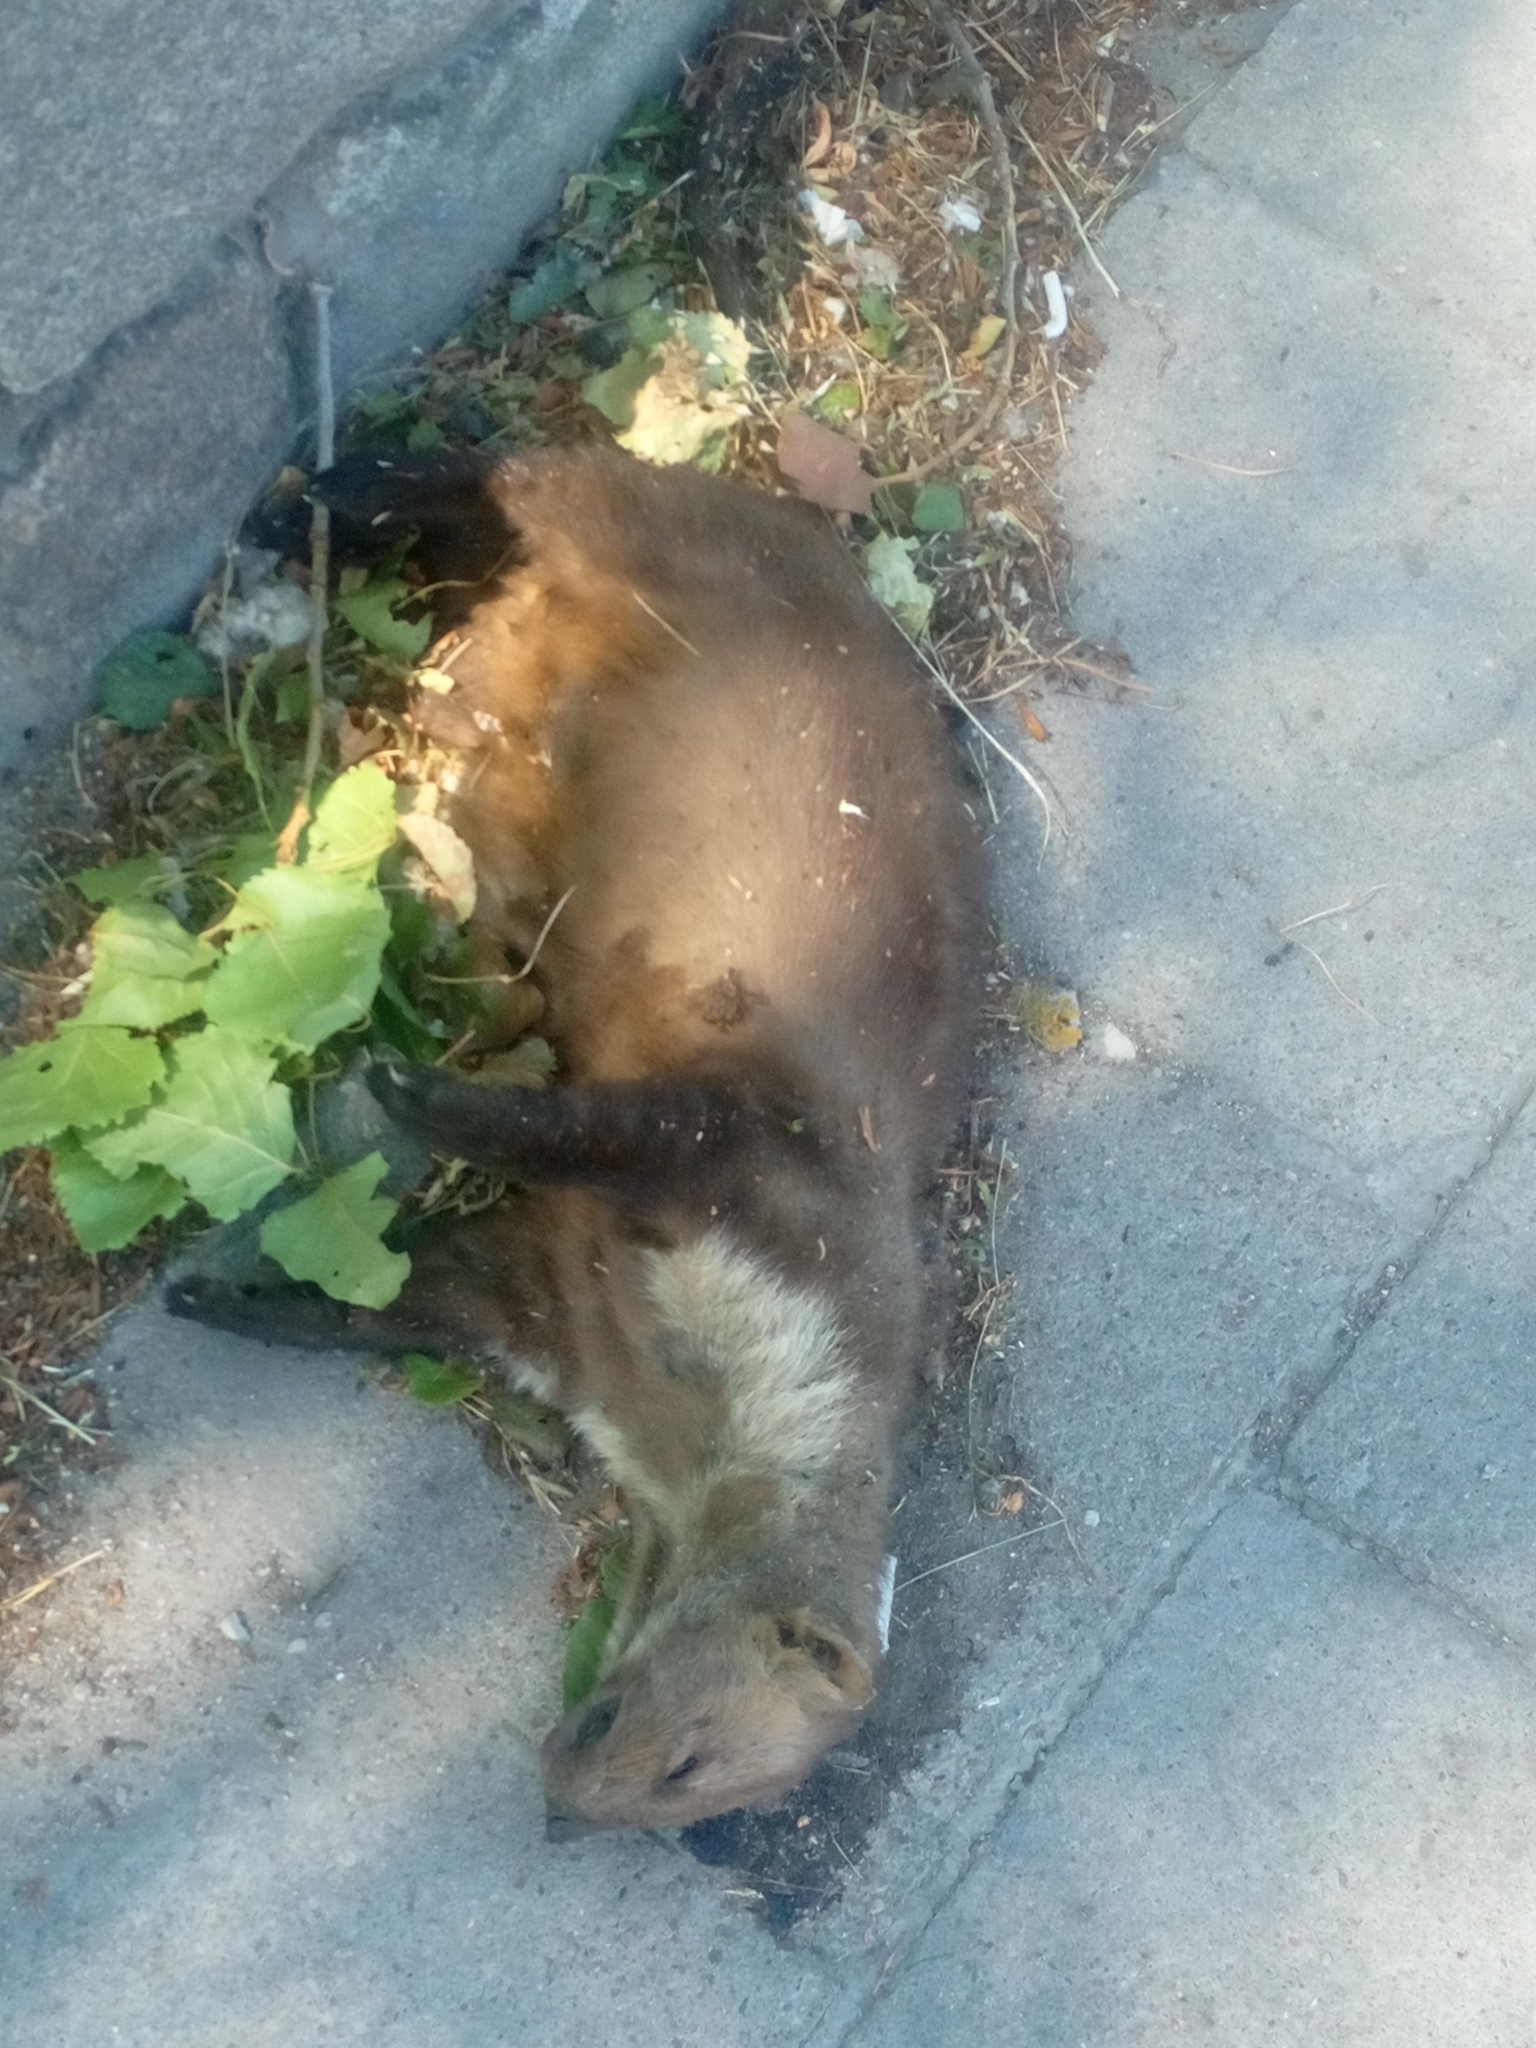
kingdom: Animalia
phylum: Chordata
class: Mammalia
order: Carnivora
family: Mustelidae
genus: Martes
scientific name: Martes foina
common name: Beech marten
